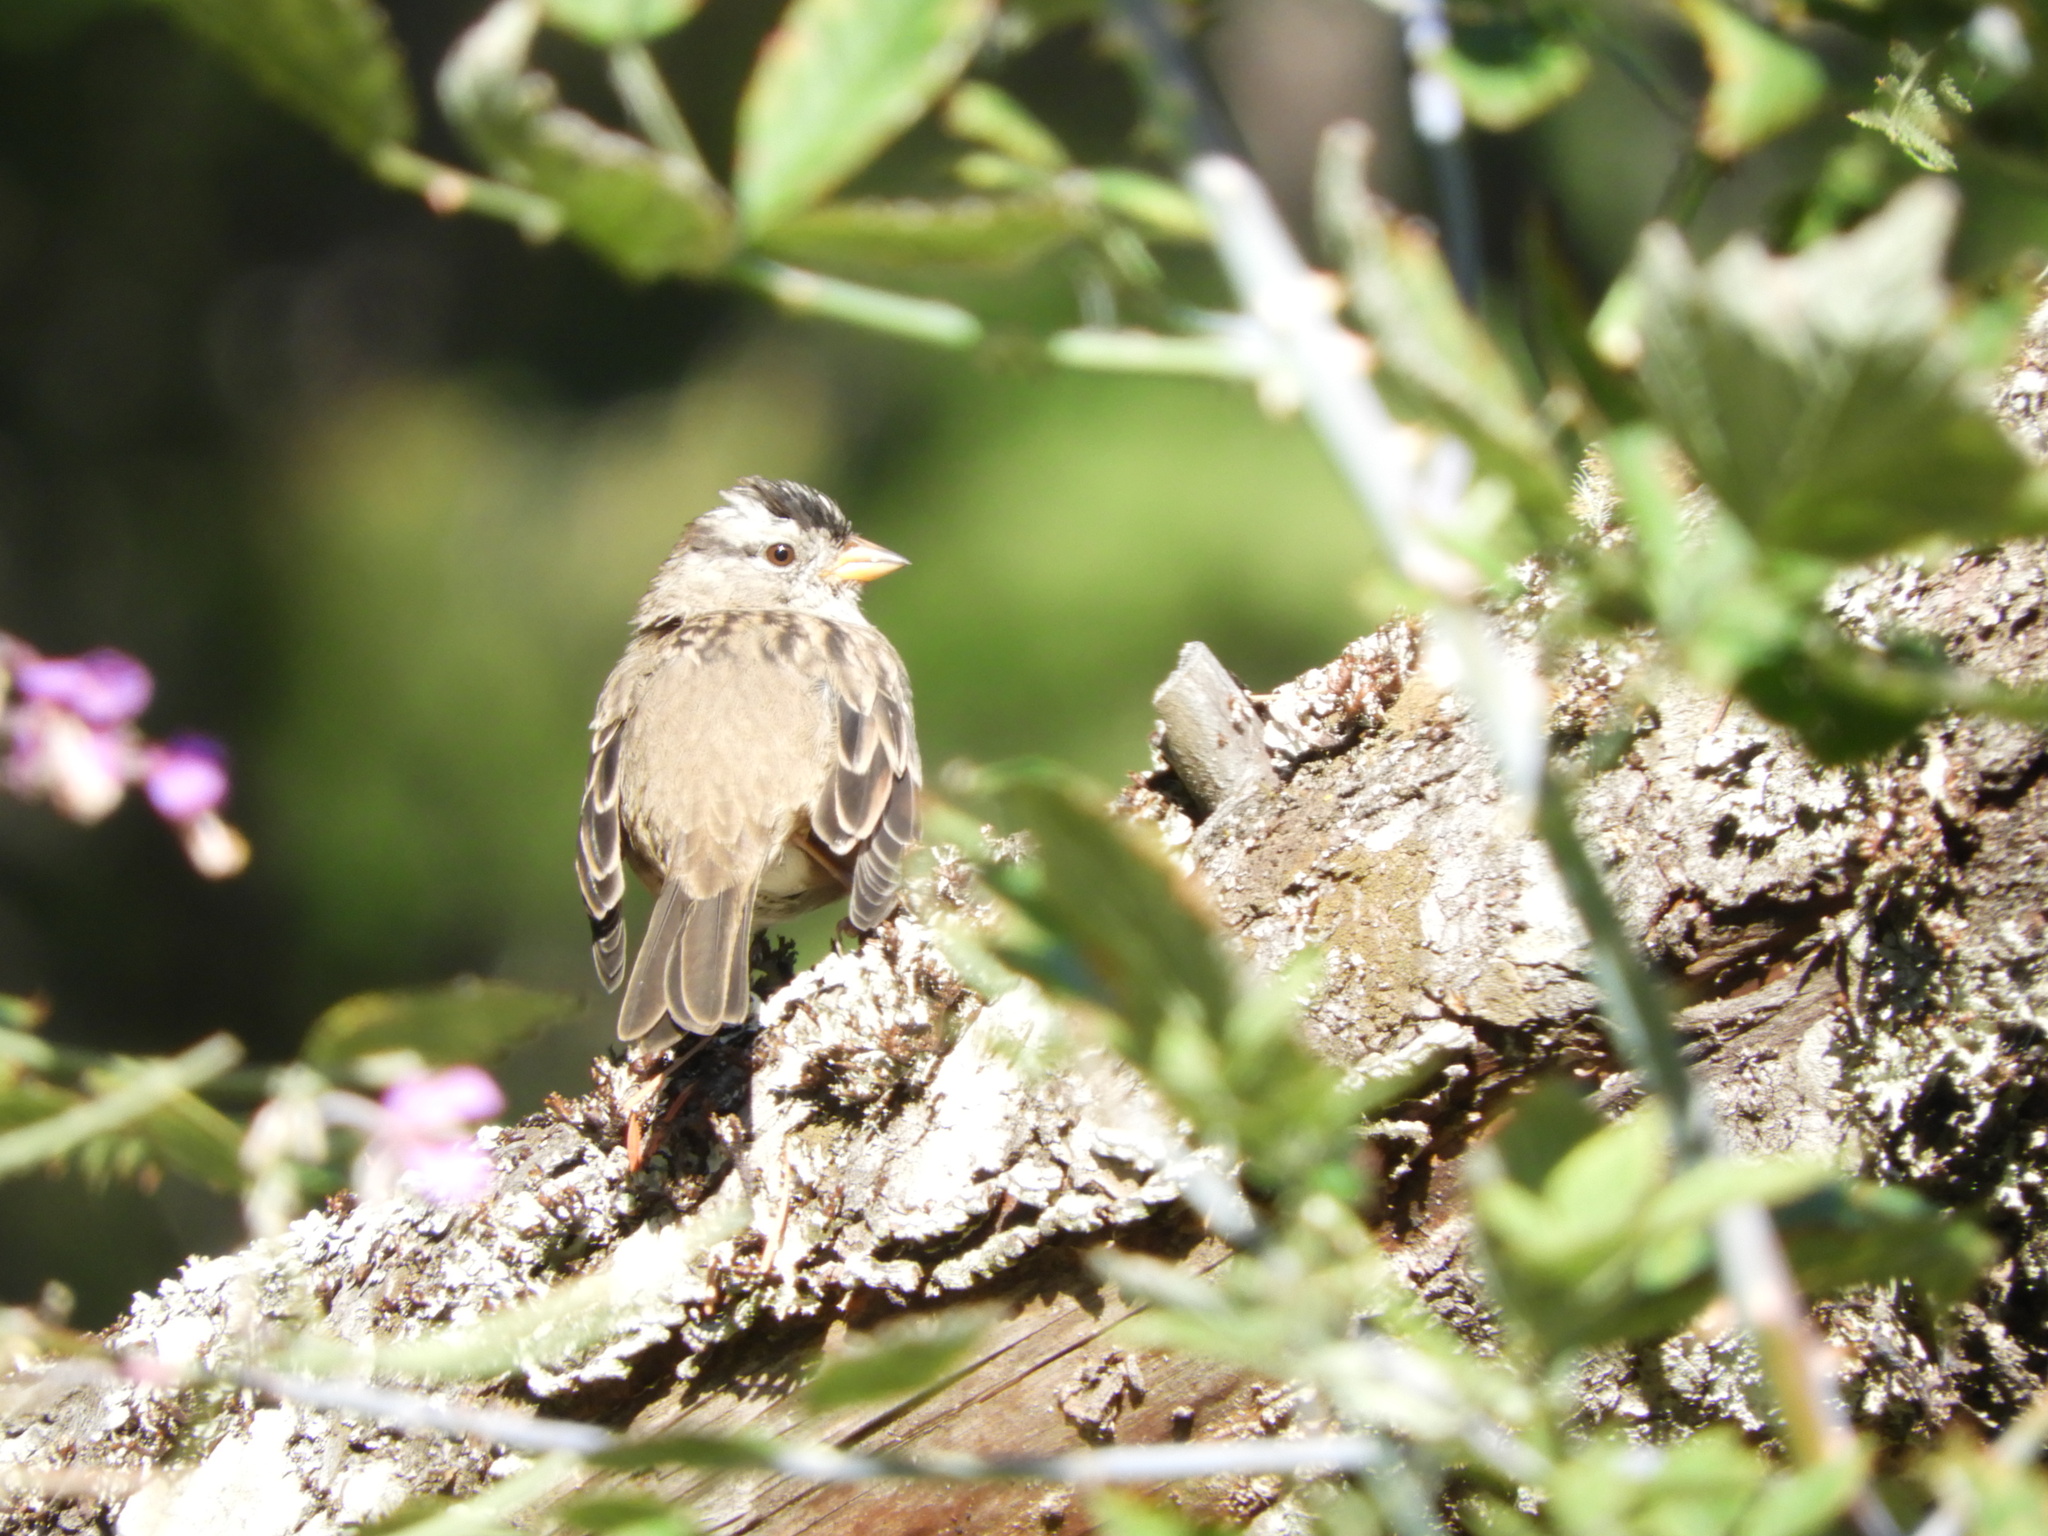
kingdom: Animalia
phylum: Chordata
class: Aves
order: Passeriformes
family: Passerellidae
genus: Zonotrichia
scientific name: Zonotrichia leucophrys
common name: White-crowned sparrow
